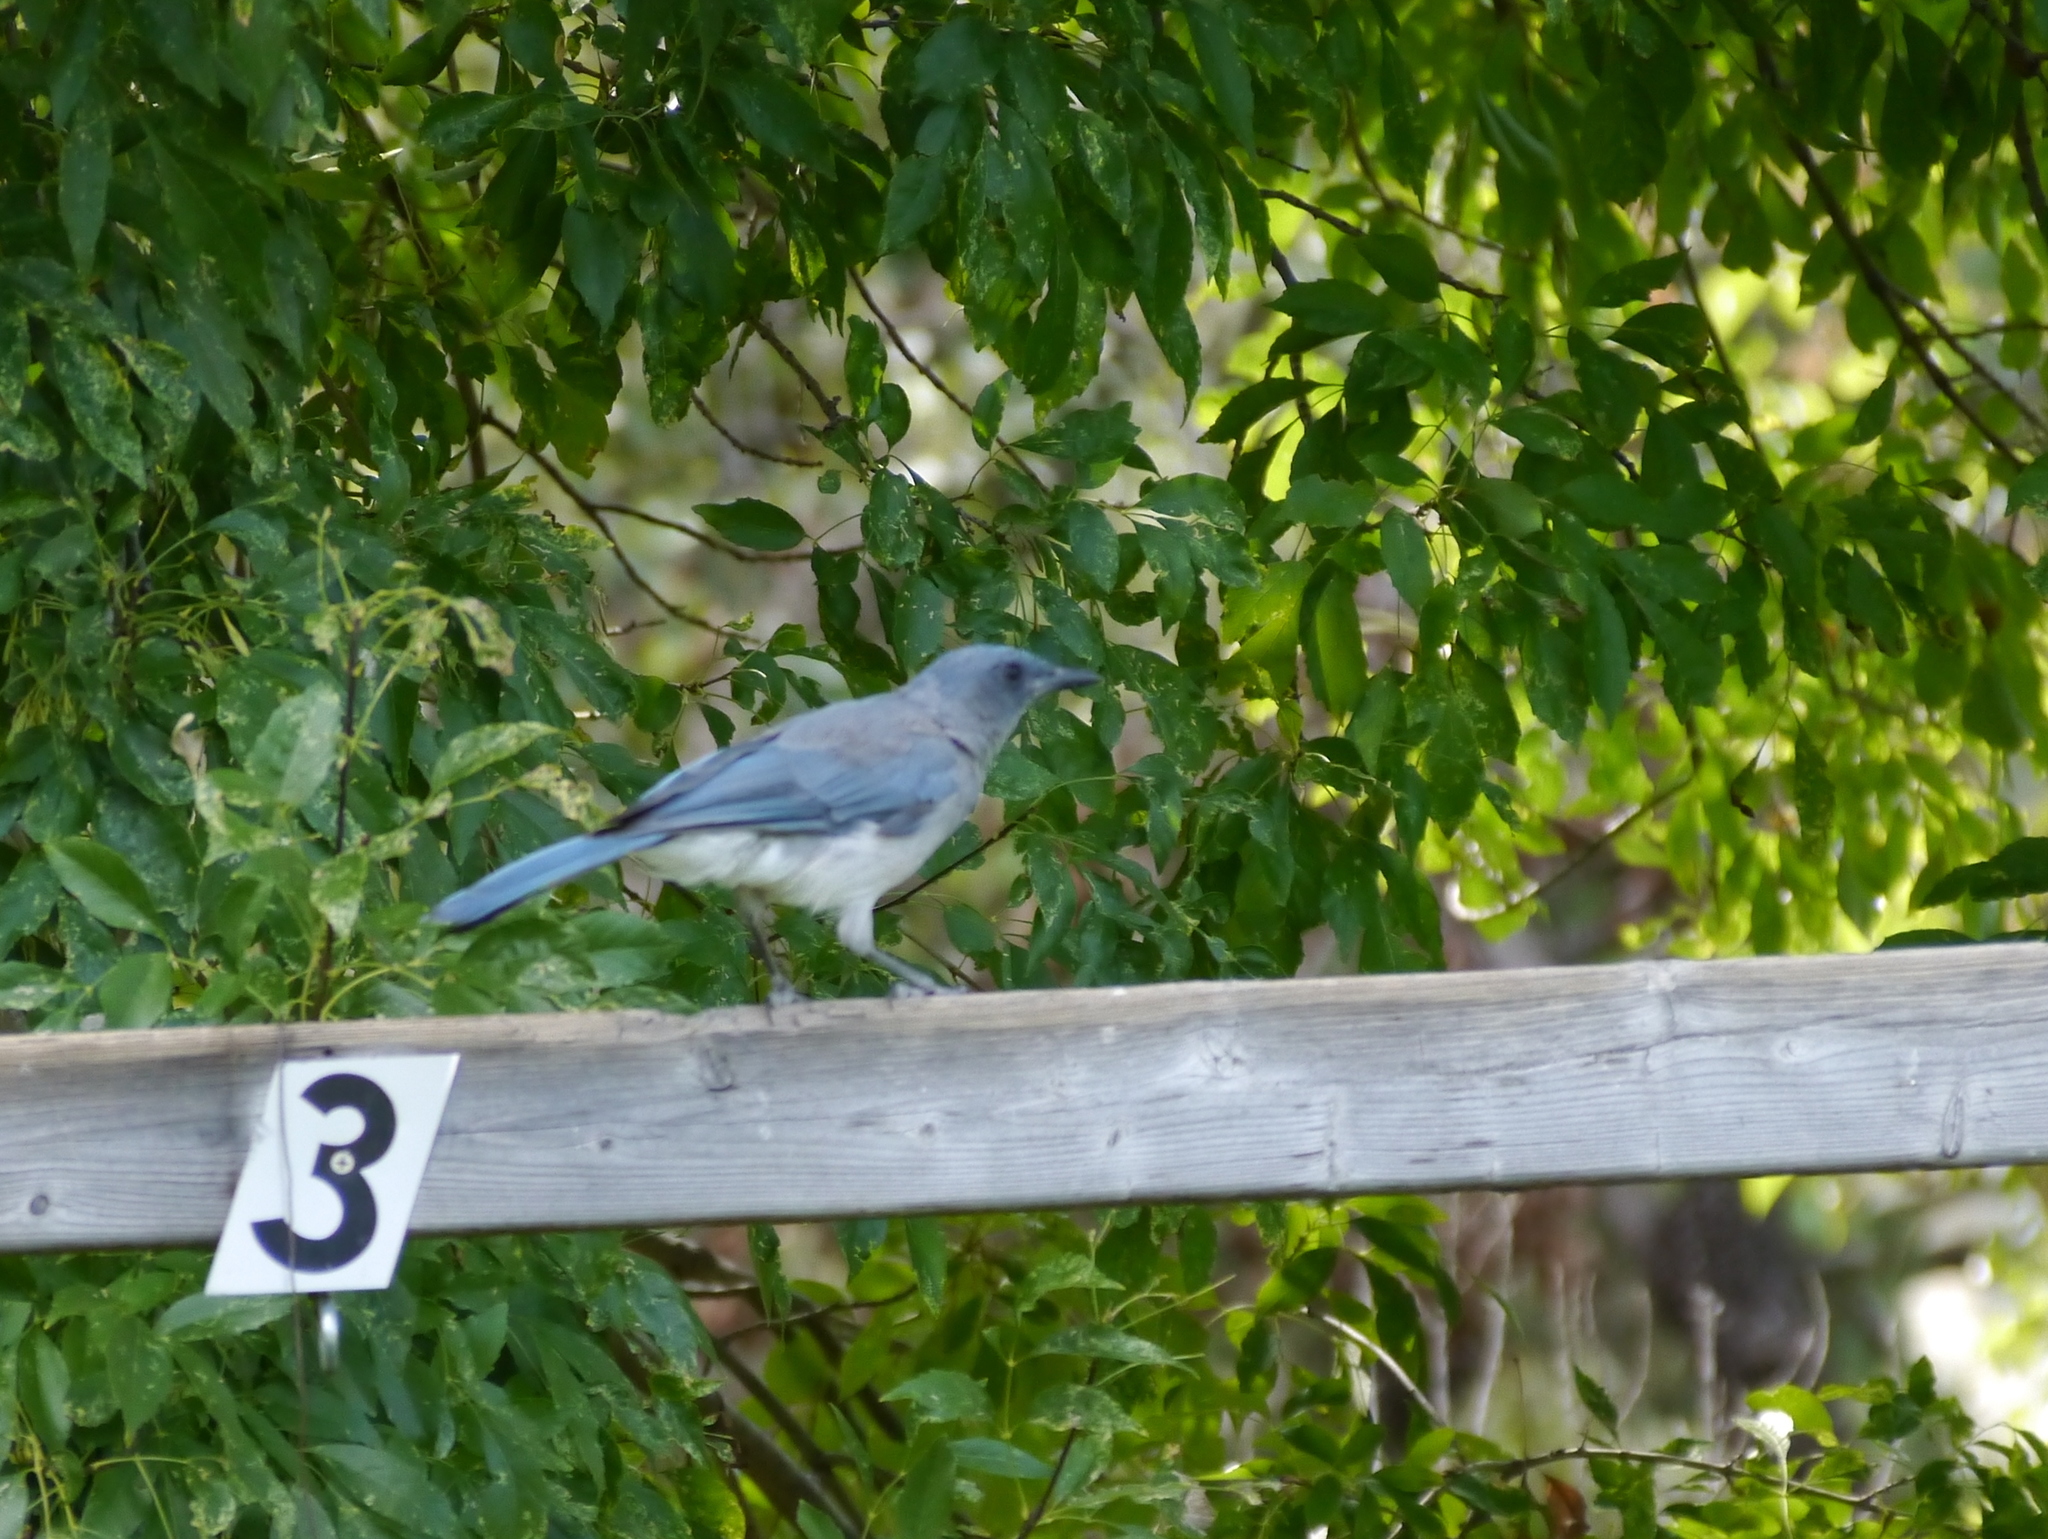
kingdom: Animalia
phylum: Chordata
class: Aves
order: Passeriformes
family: Corvidae
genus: Aphelocoma
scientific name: Aphelocoma wollweberi
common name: Mexican jay
